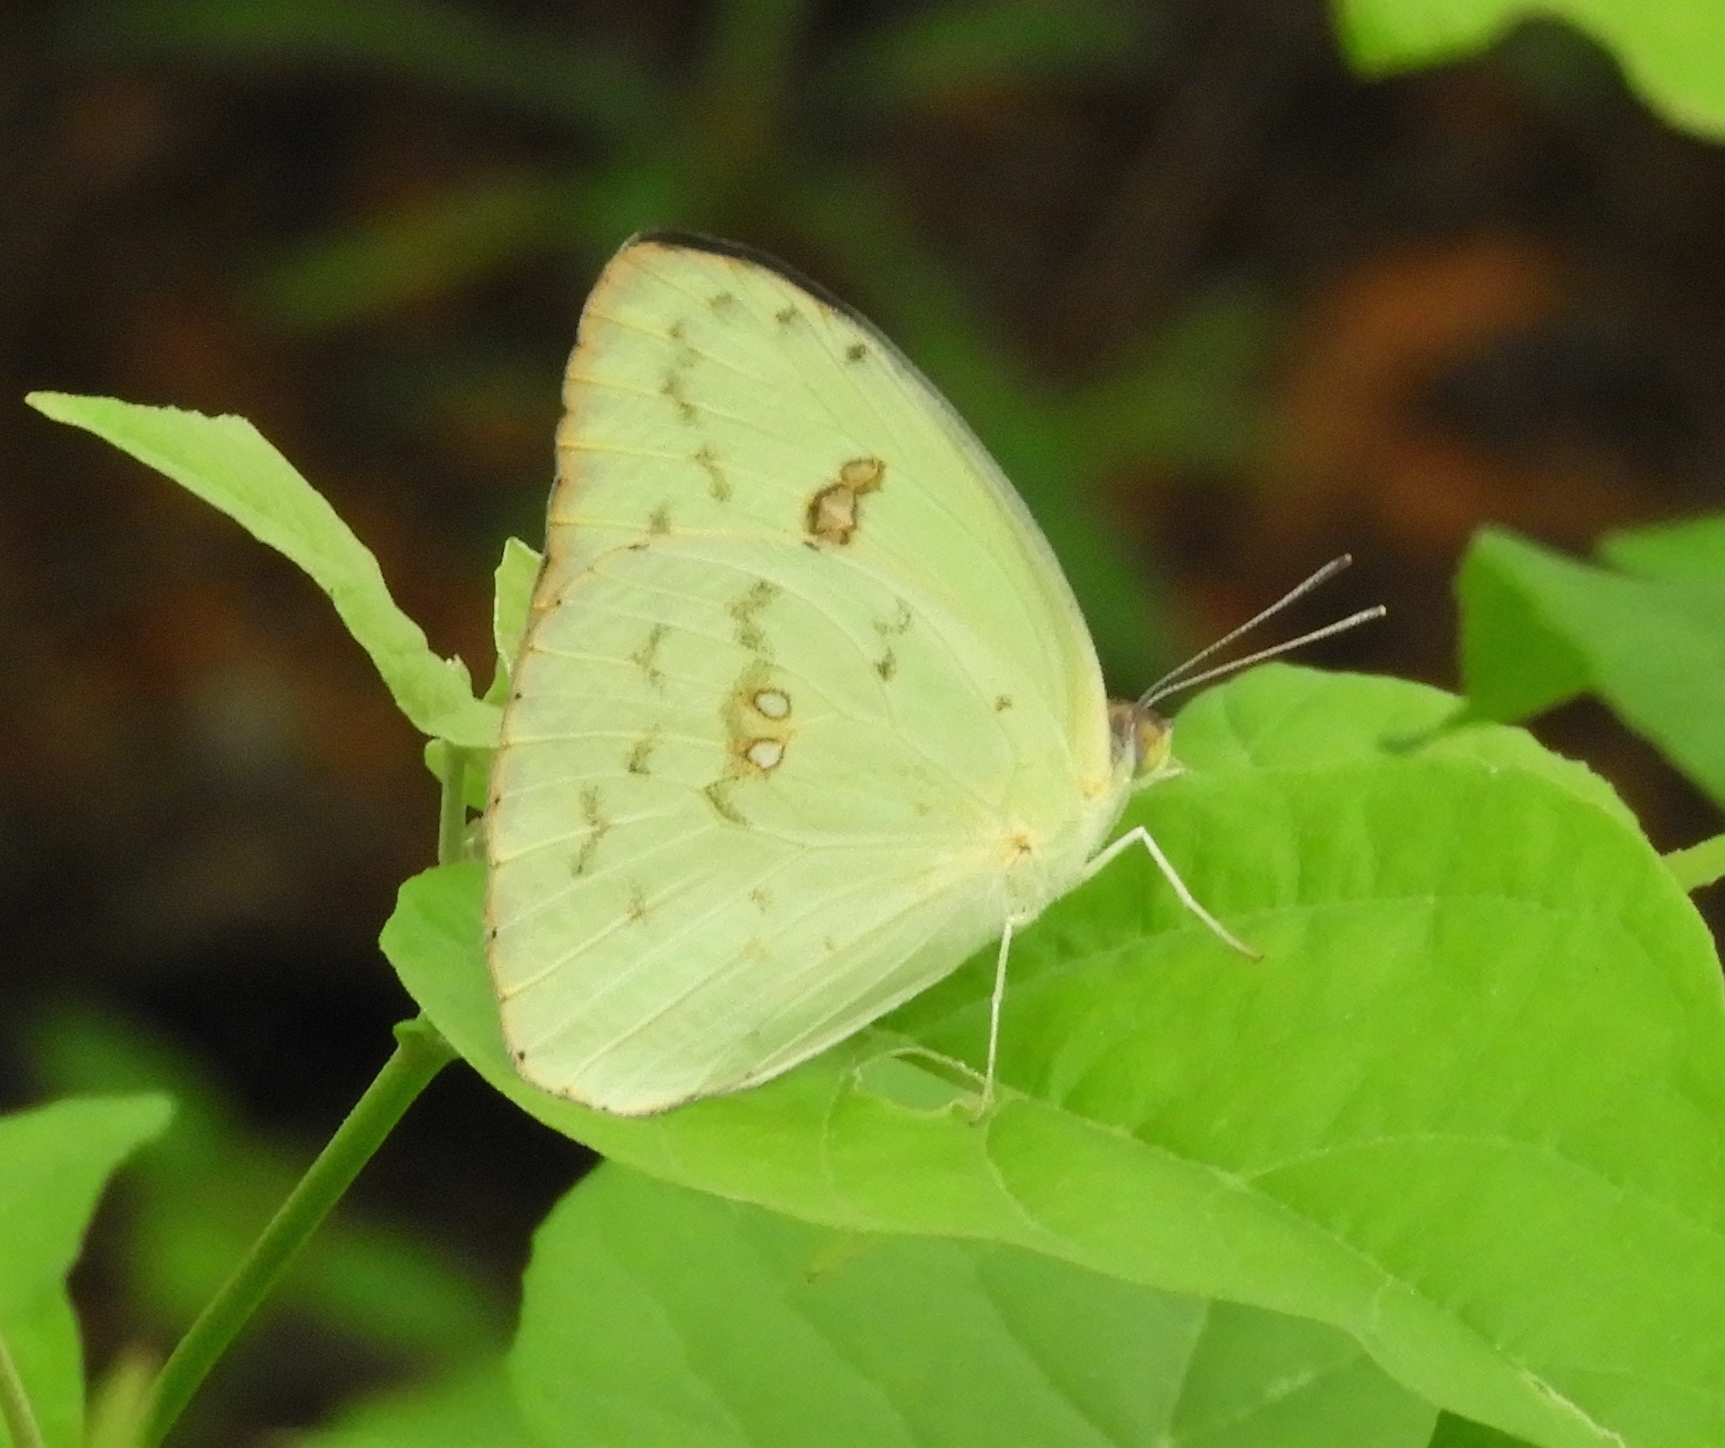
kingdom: Animalia
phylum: Arthropoda
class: Insecta
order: Lepidoptera
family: Pieridae
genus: Phoebis
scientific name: Phoebis
